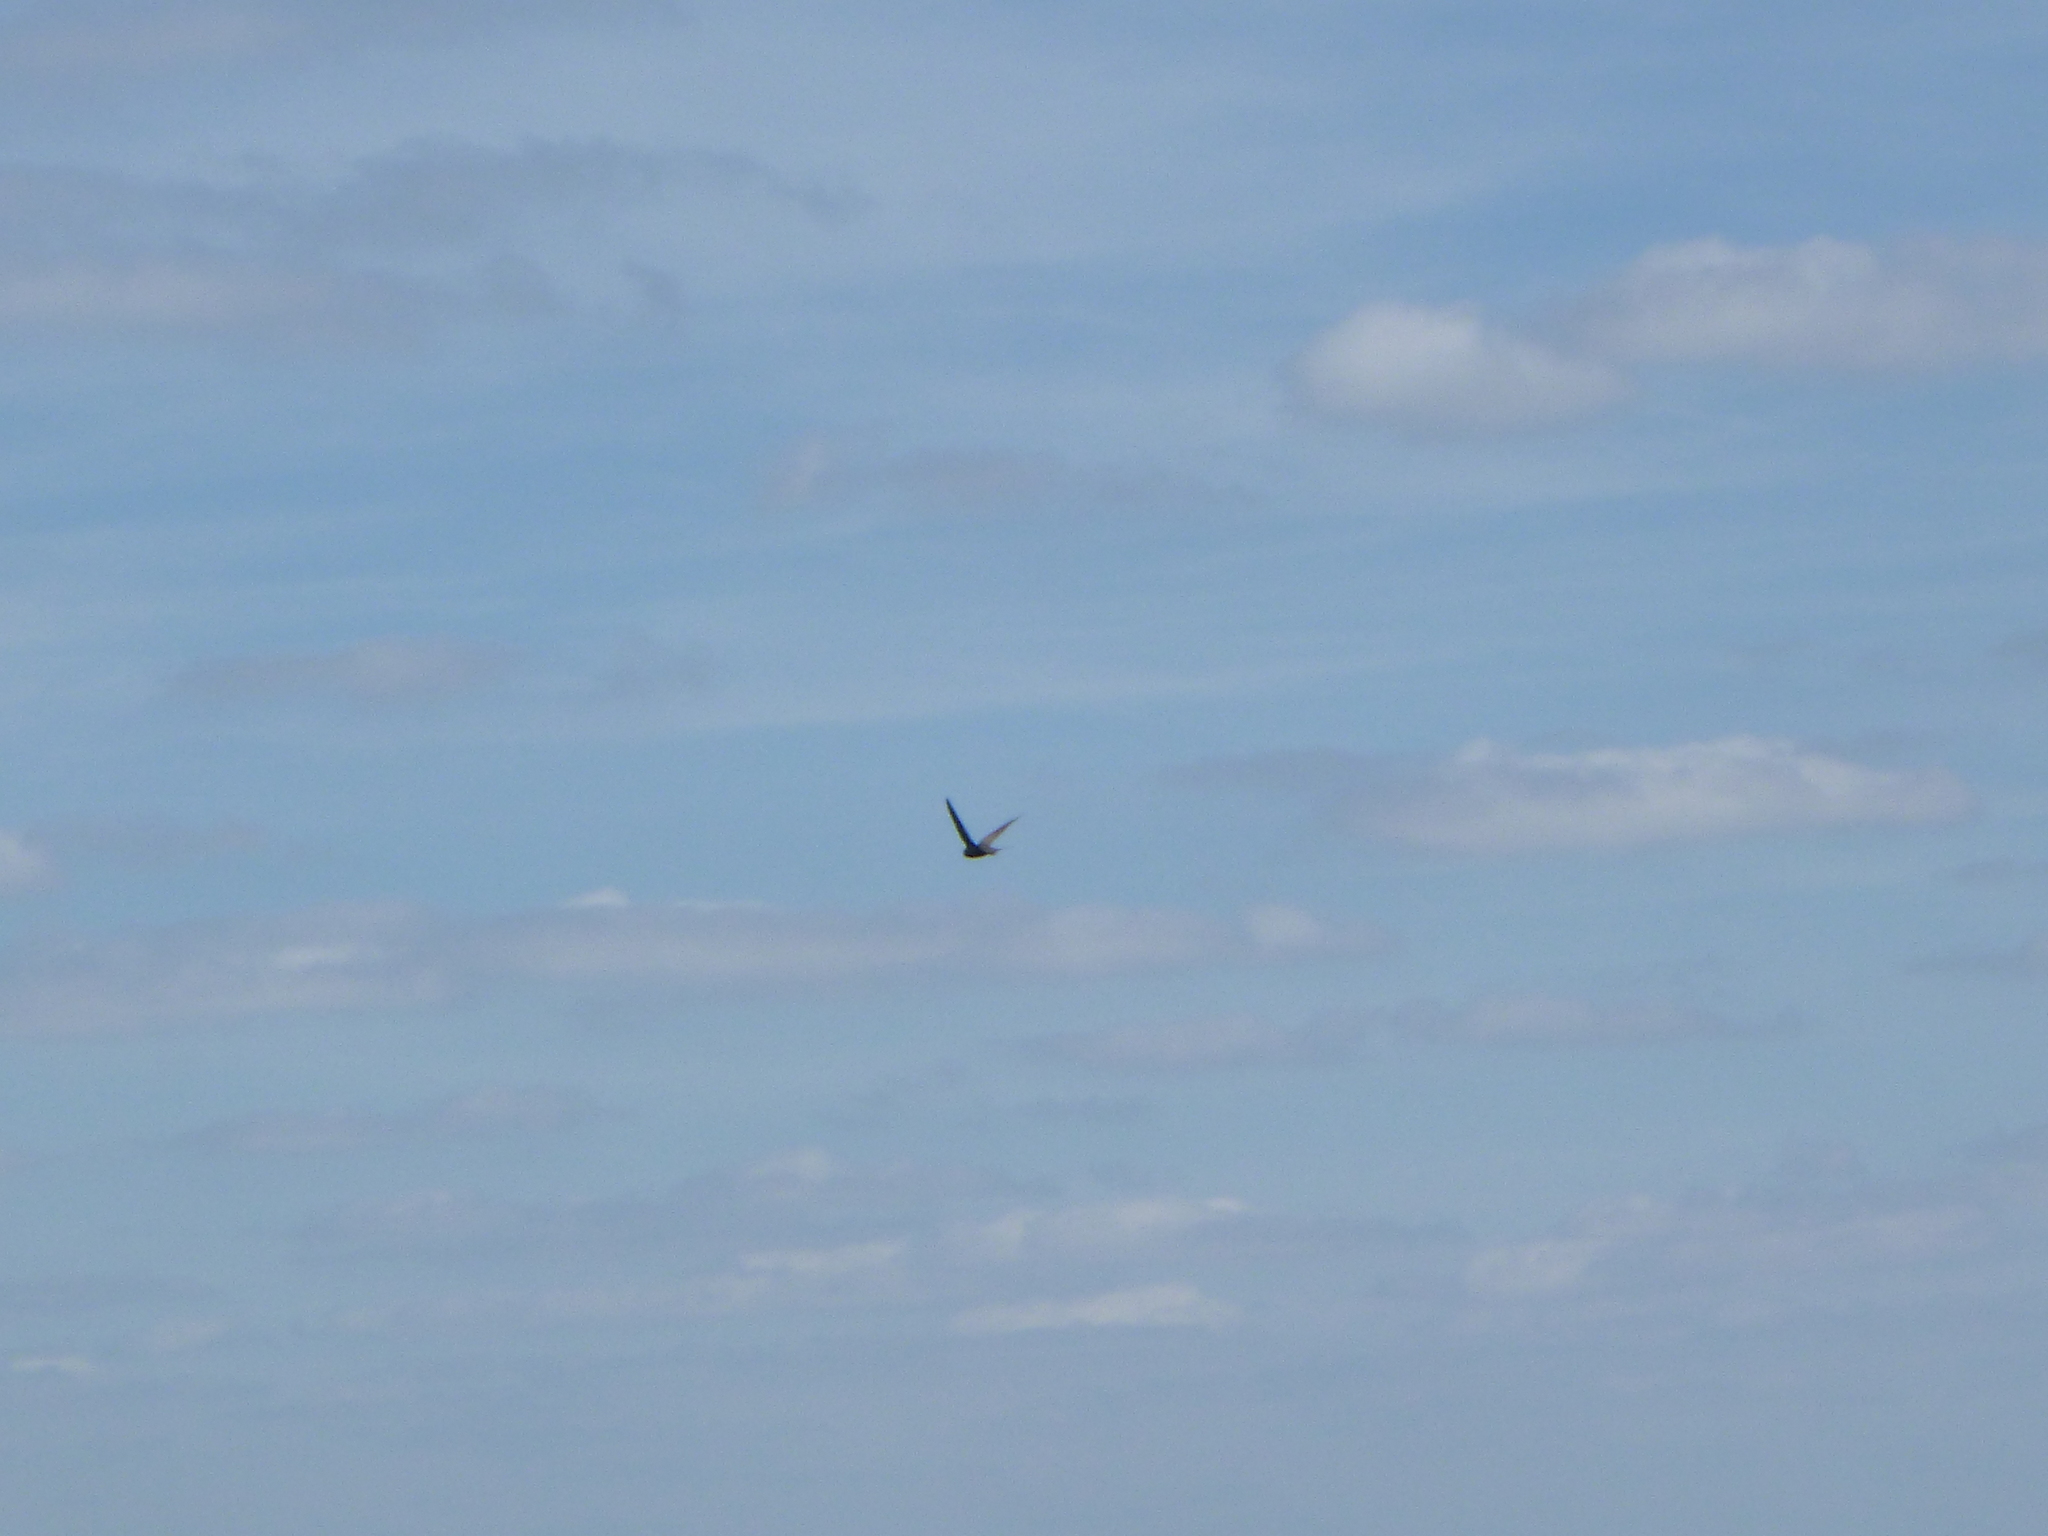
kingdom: Animalia
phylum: Chordata
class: Aves
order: Apodiformes
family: Apodidae
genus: Apus
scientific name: Apus apus
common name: Common swift
